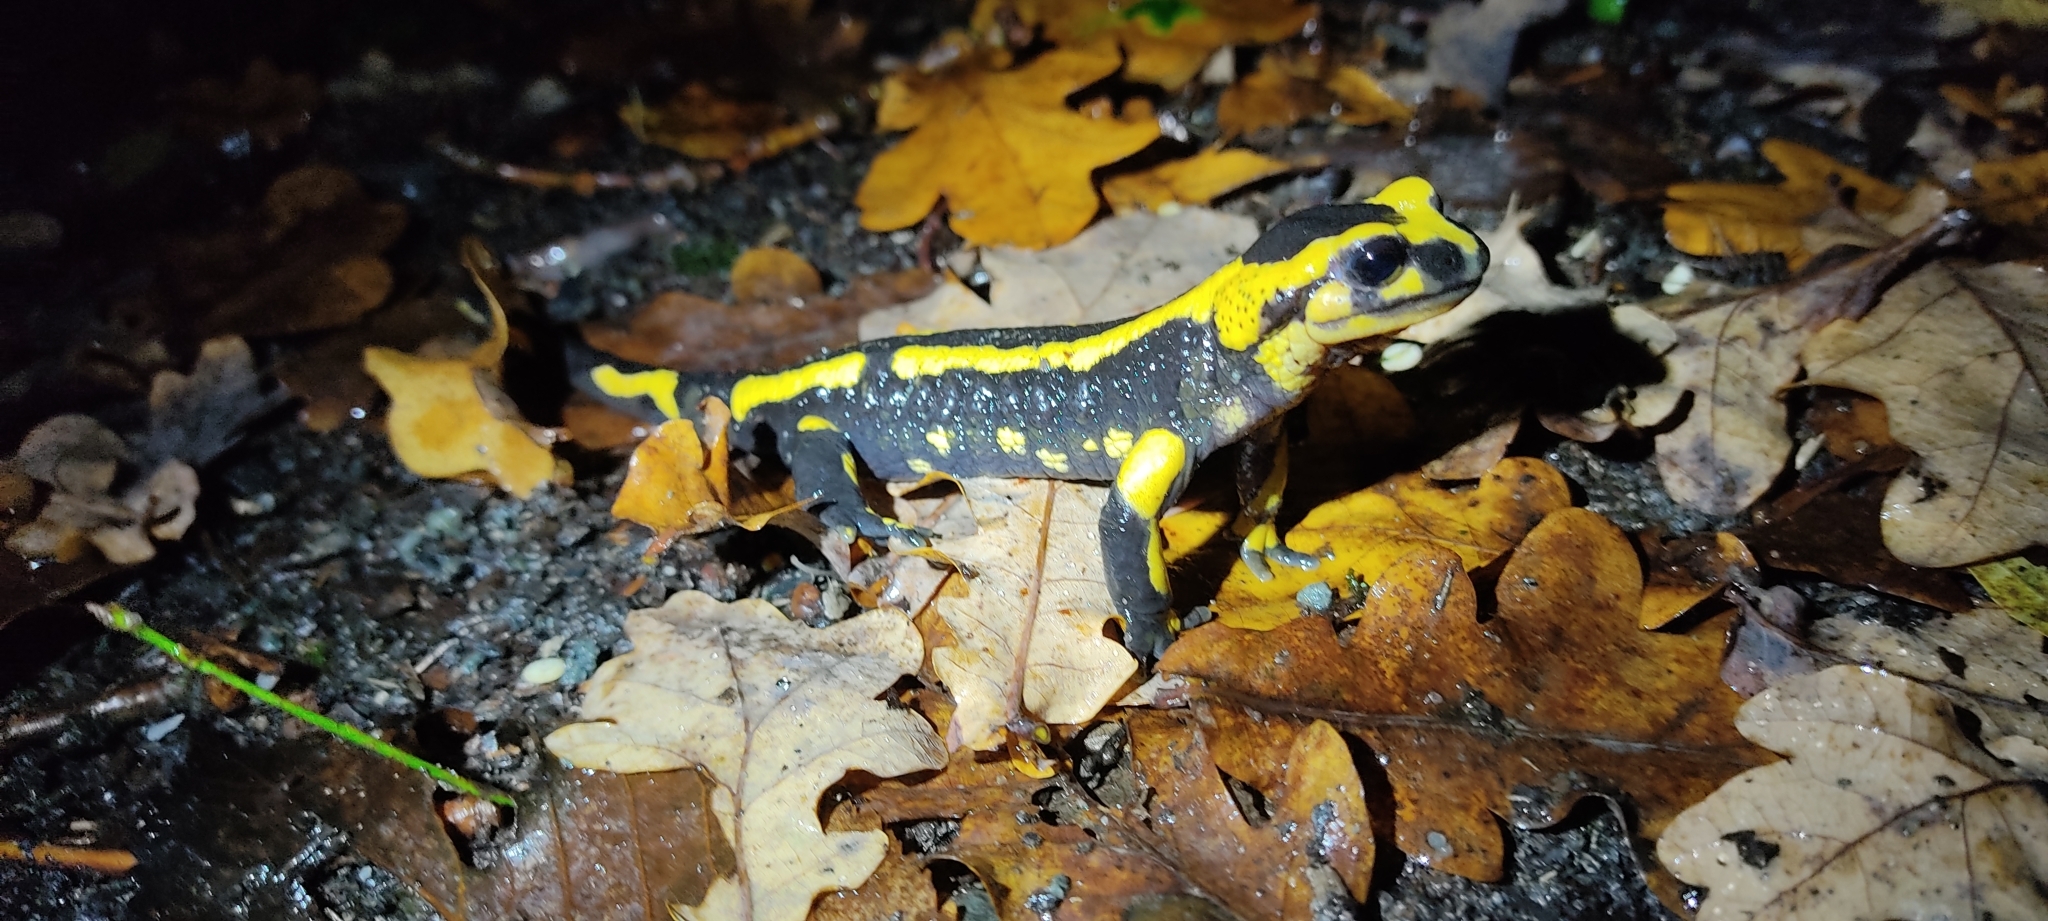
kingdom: Animalia
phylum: Chordata
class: Amphibia
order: Caudata
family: Salamandridae
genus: Salamandra
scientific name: Salamandra salamandra
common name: Fire salamander
